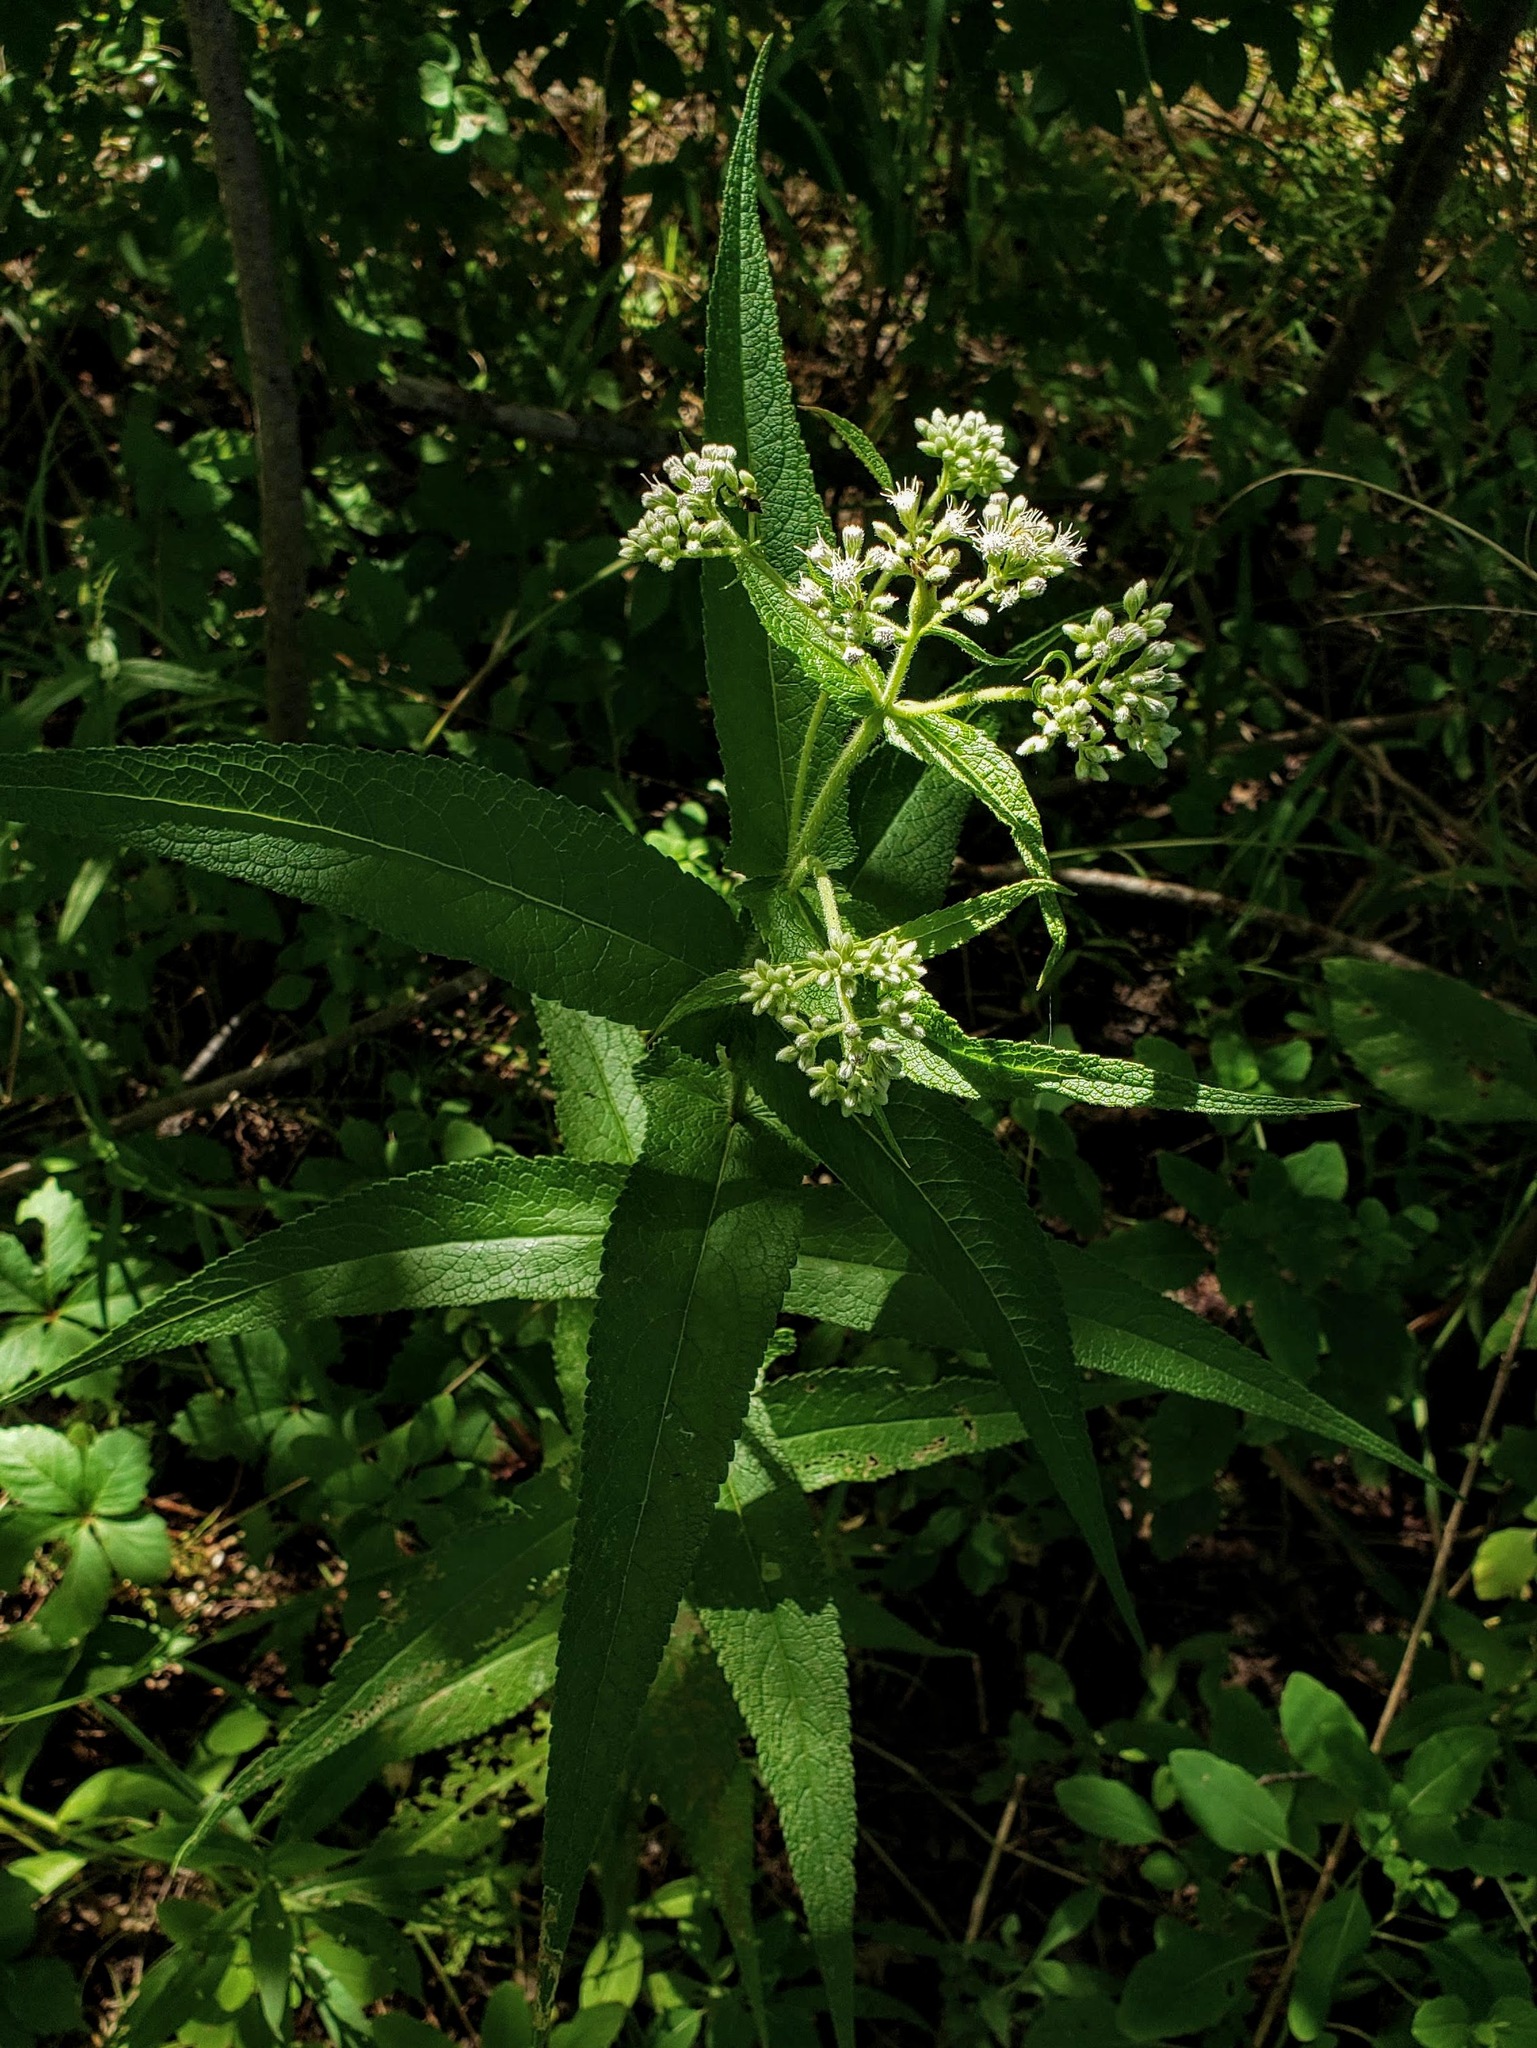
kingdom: Plantae
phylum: Tracheophyta
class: Magnoliopsida
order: Asterales
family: Asteraceae
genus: Eupatorium
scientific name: Eupatorium perfoliatum
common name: Boneset
